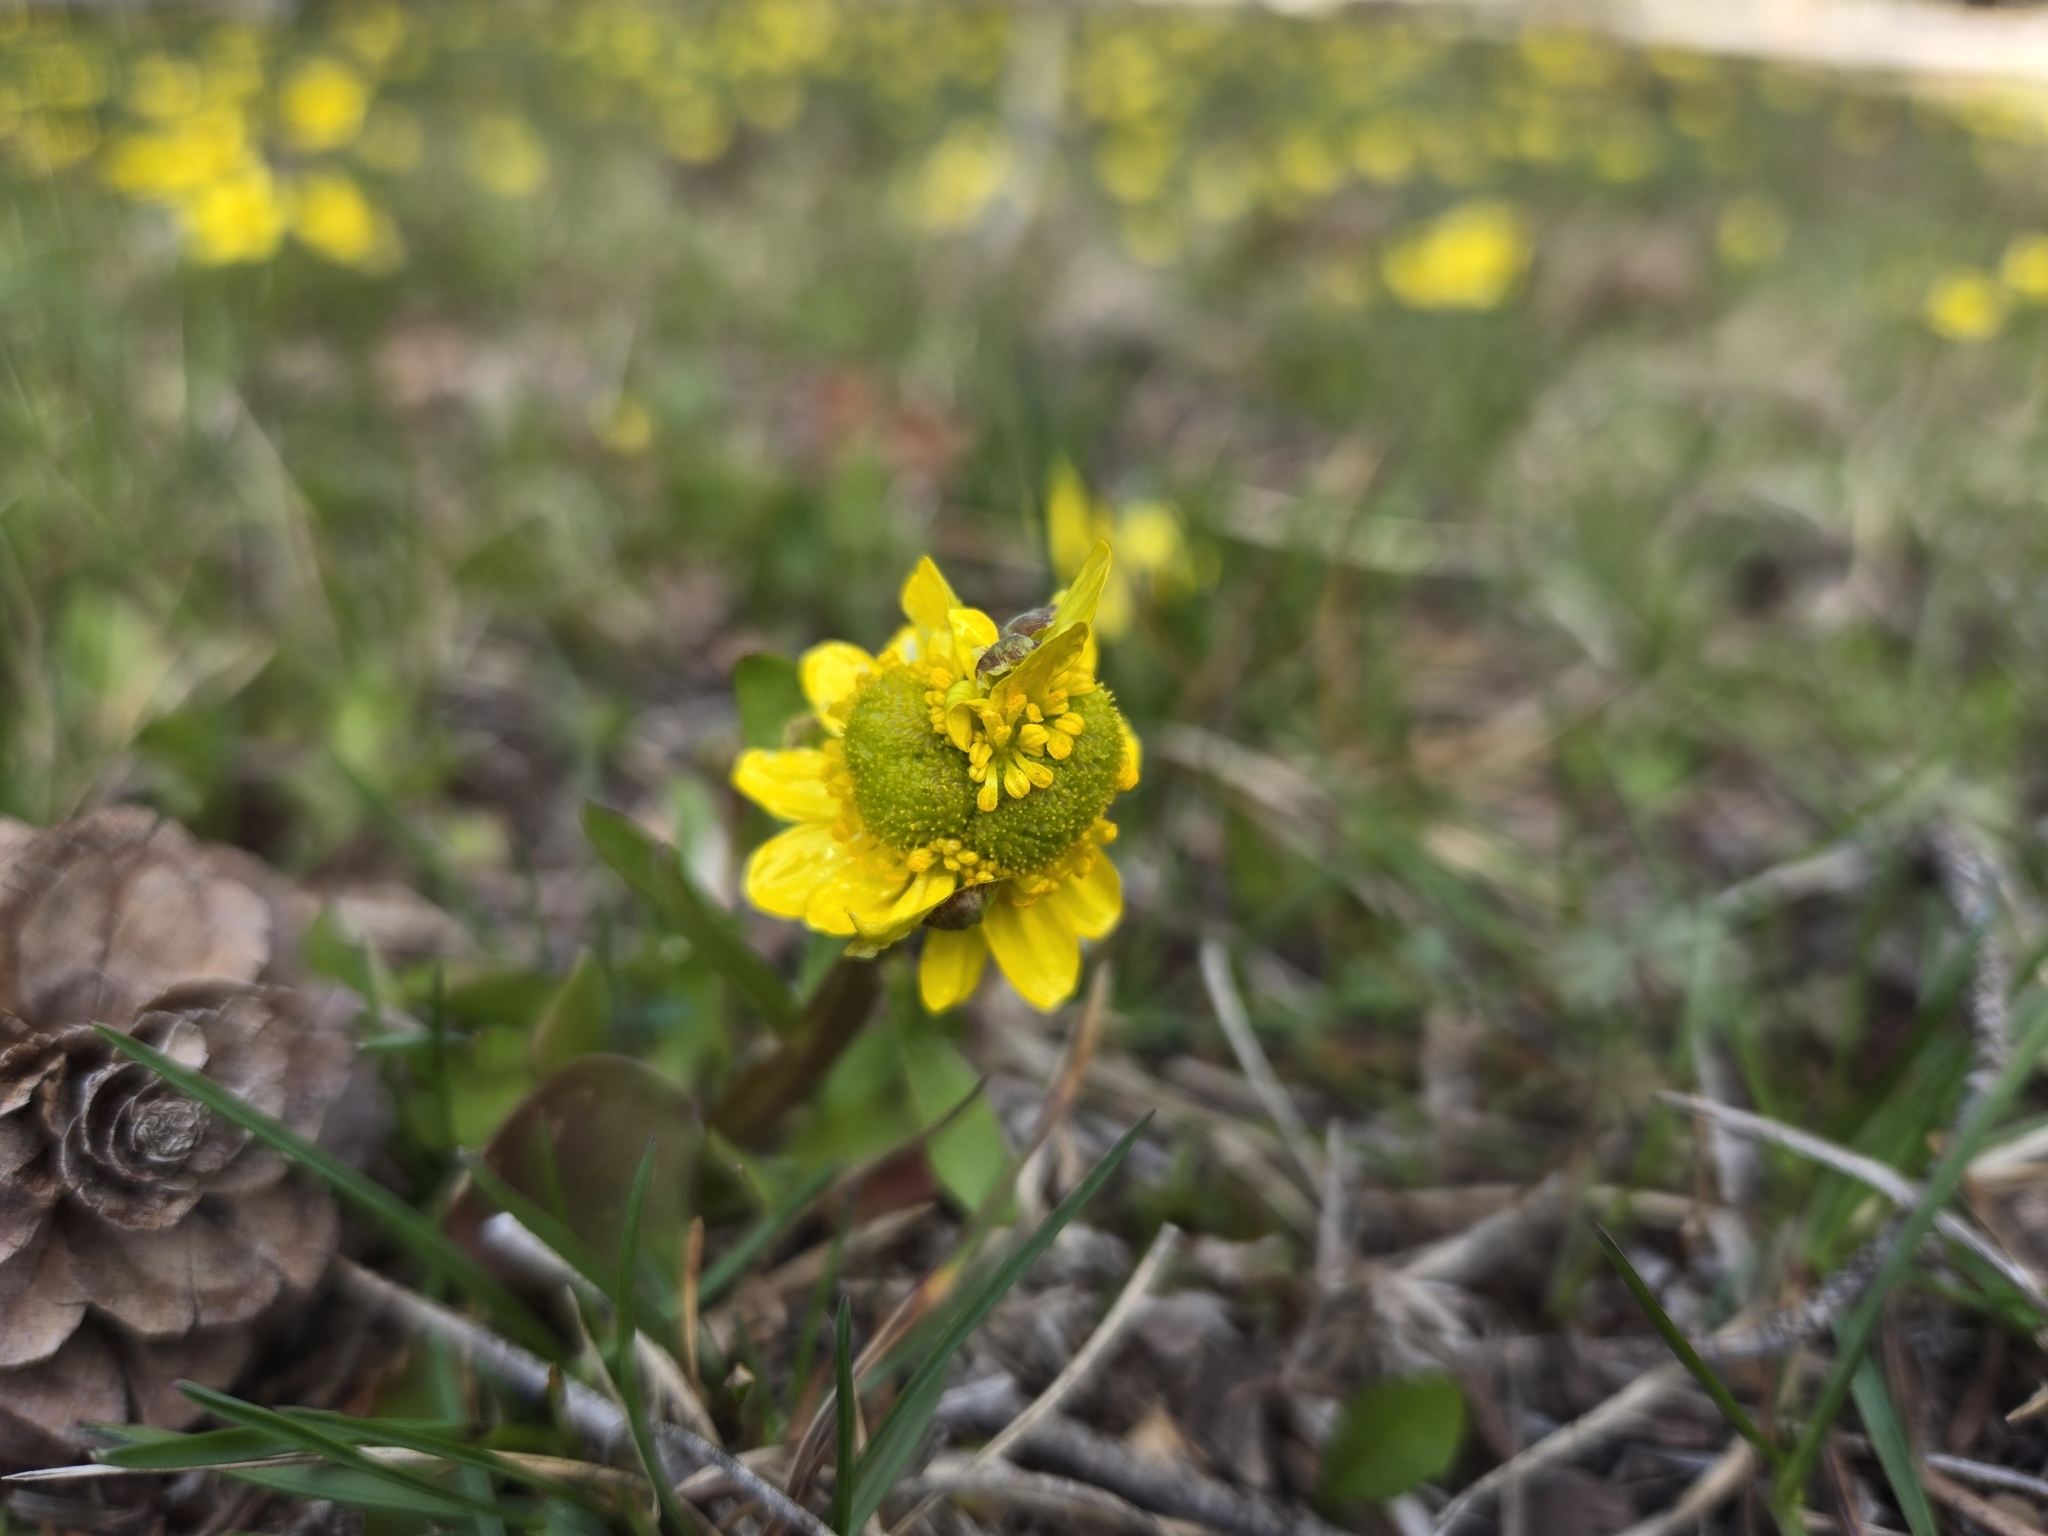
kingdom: Plantae
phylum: Tracheophyta
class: Magnoliopsida
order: Ranunculales
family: Ranunculaceae
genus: Ranunculus
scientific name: Ranunculus glaberrimus
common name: Sagebrush buttercup
